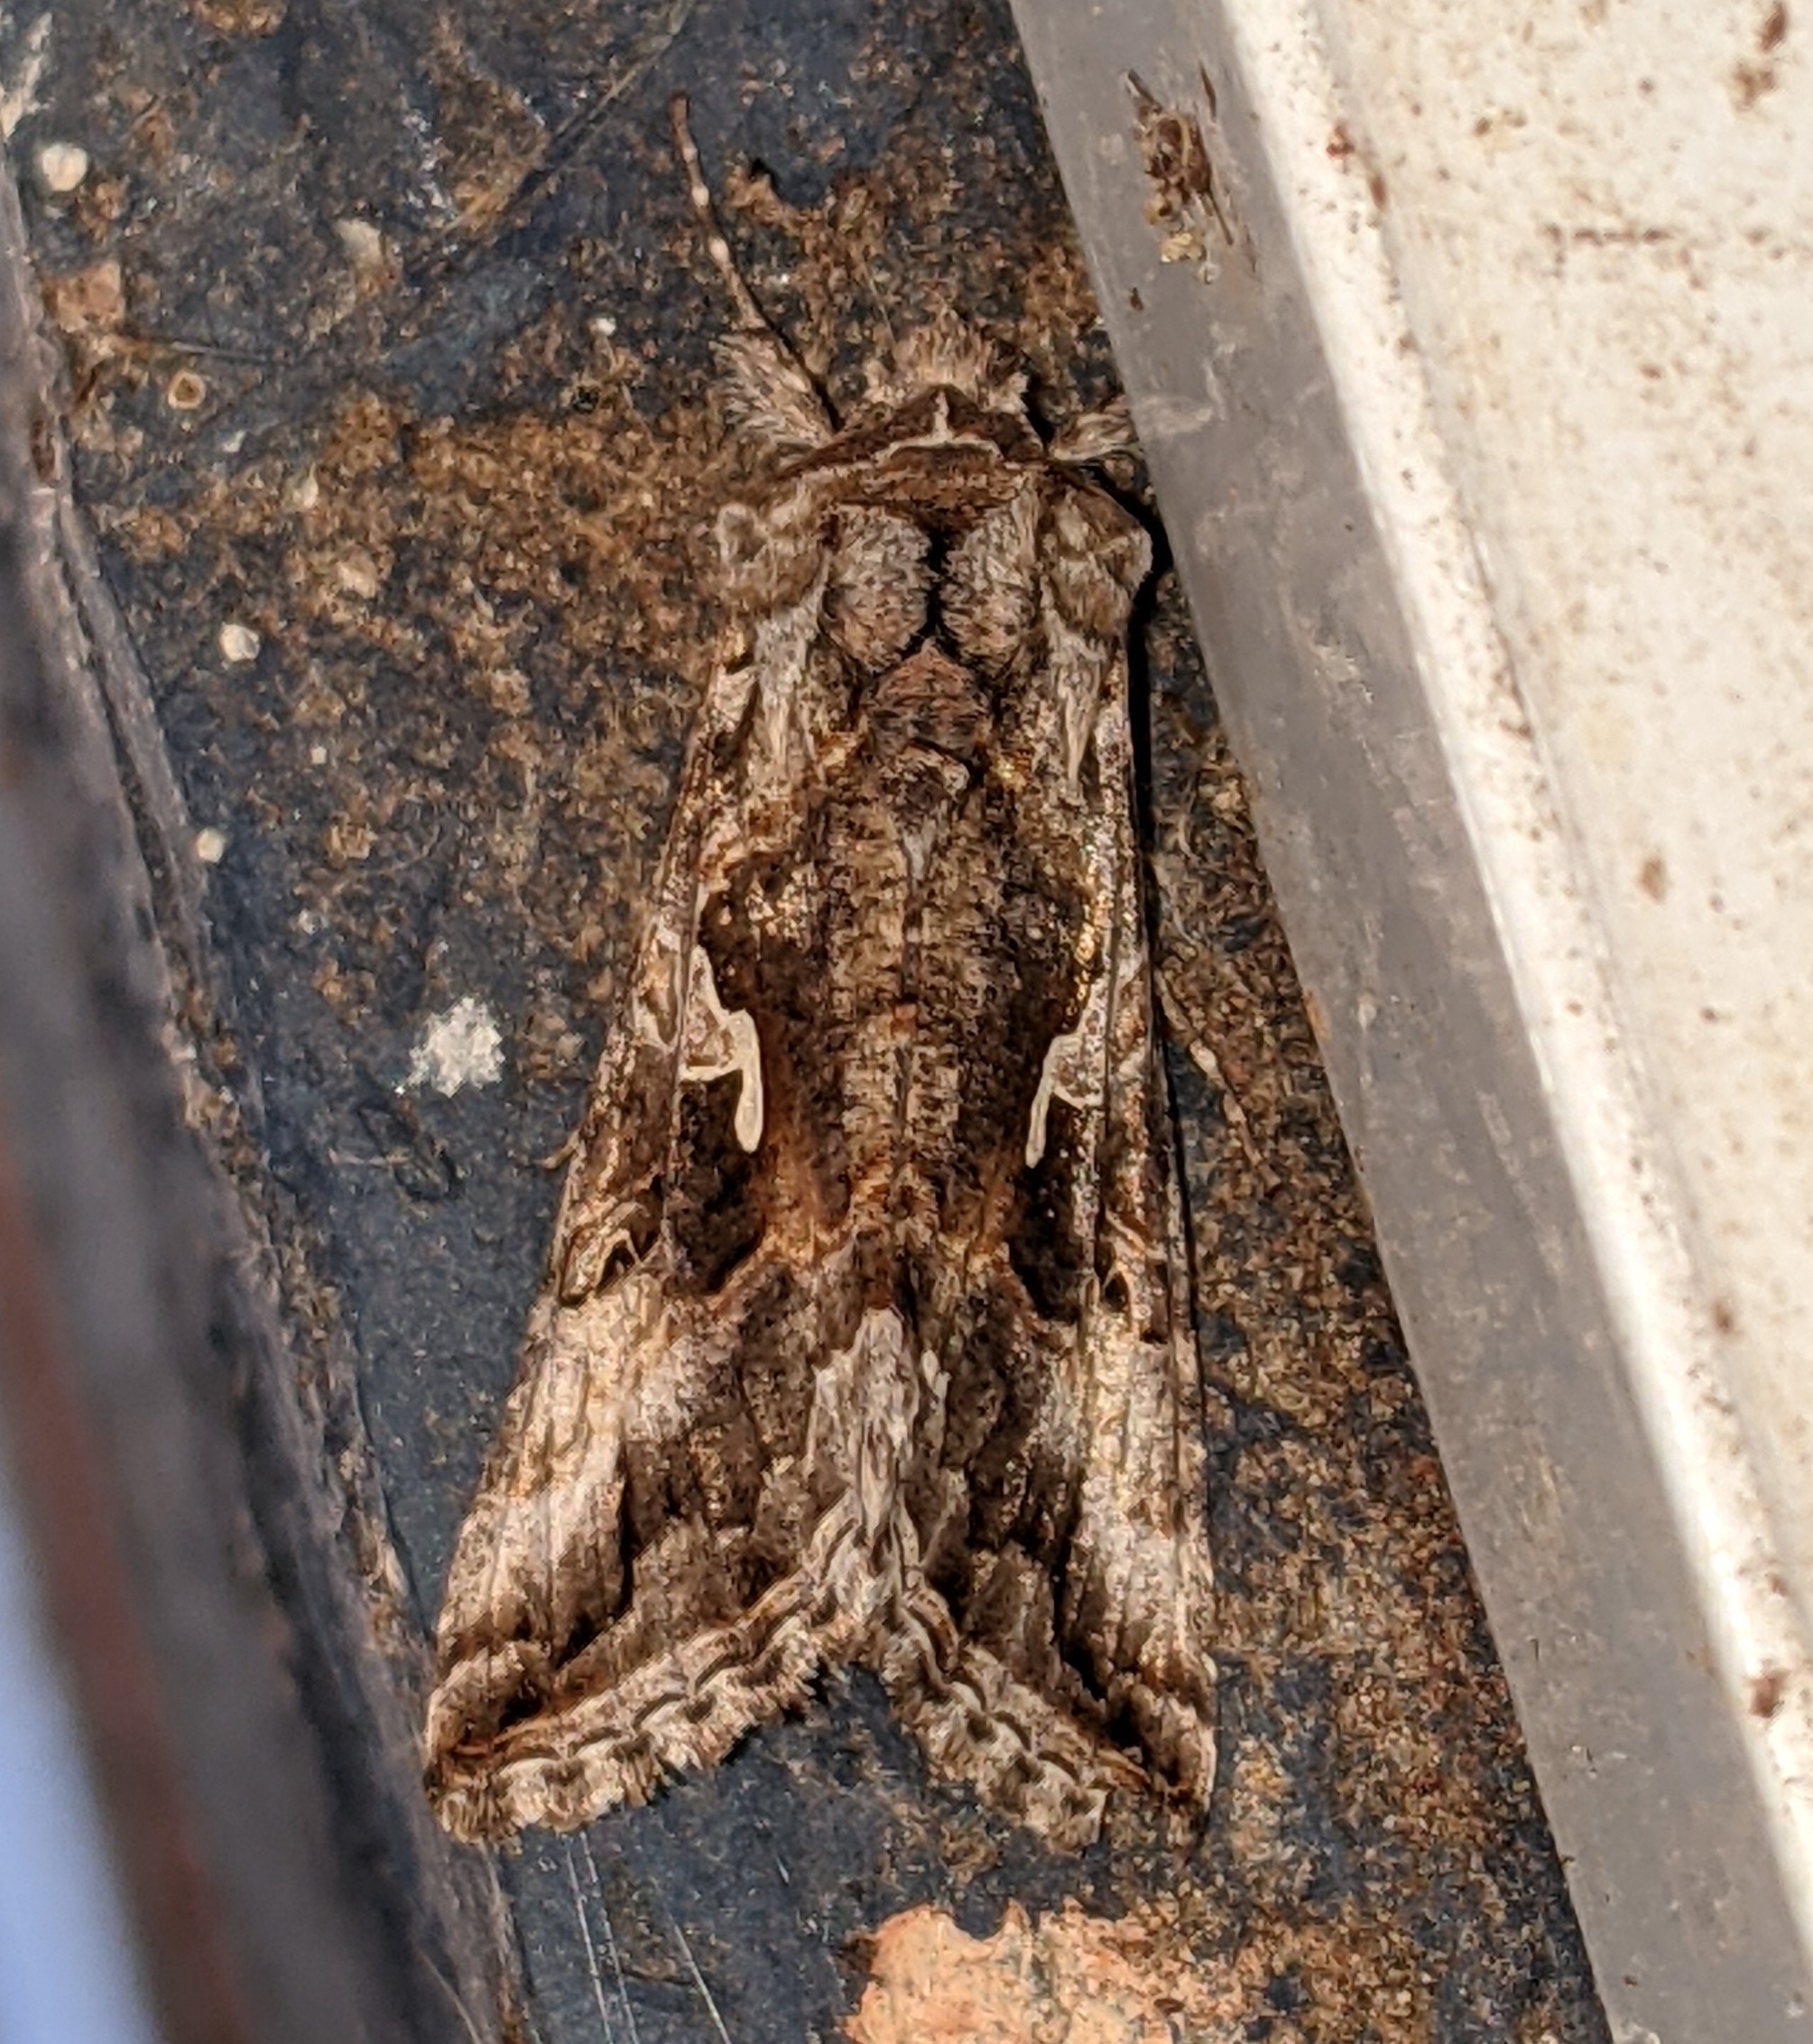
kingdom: Animalia
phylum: Arthropoda
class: Insecta
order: Lepidoptera
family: Noctuidae
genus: Autographa
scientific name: Autographa californica
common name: Alfalfa looper
